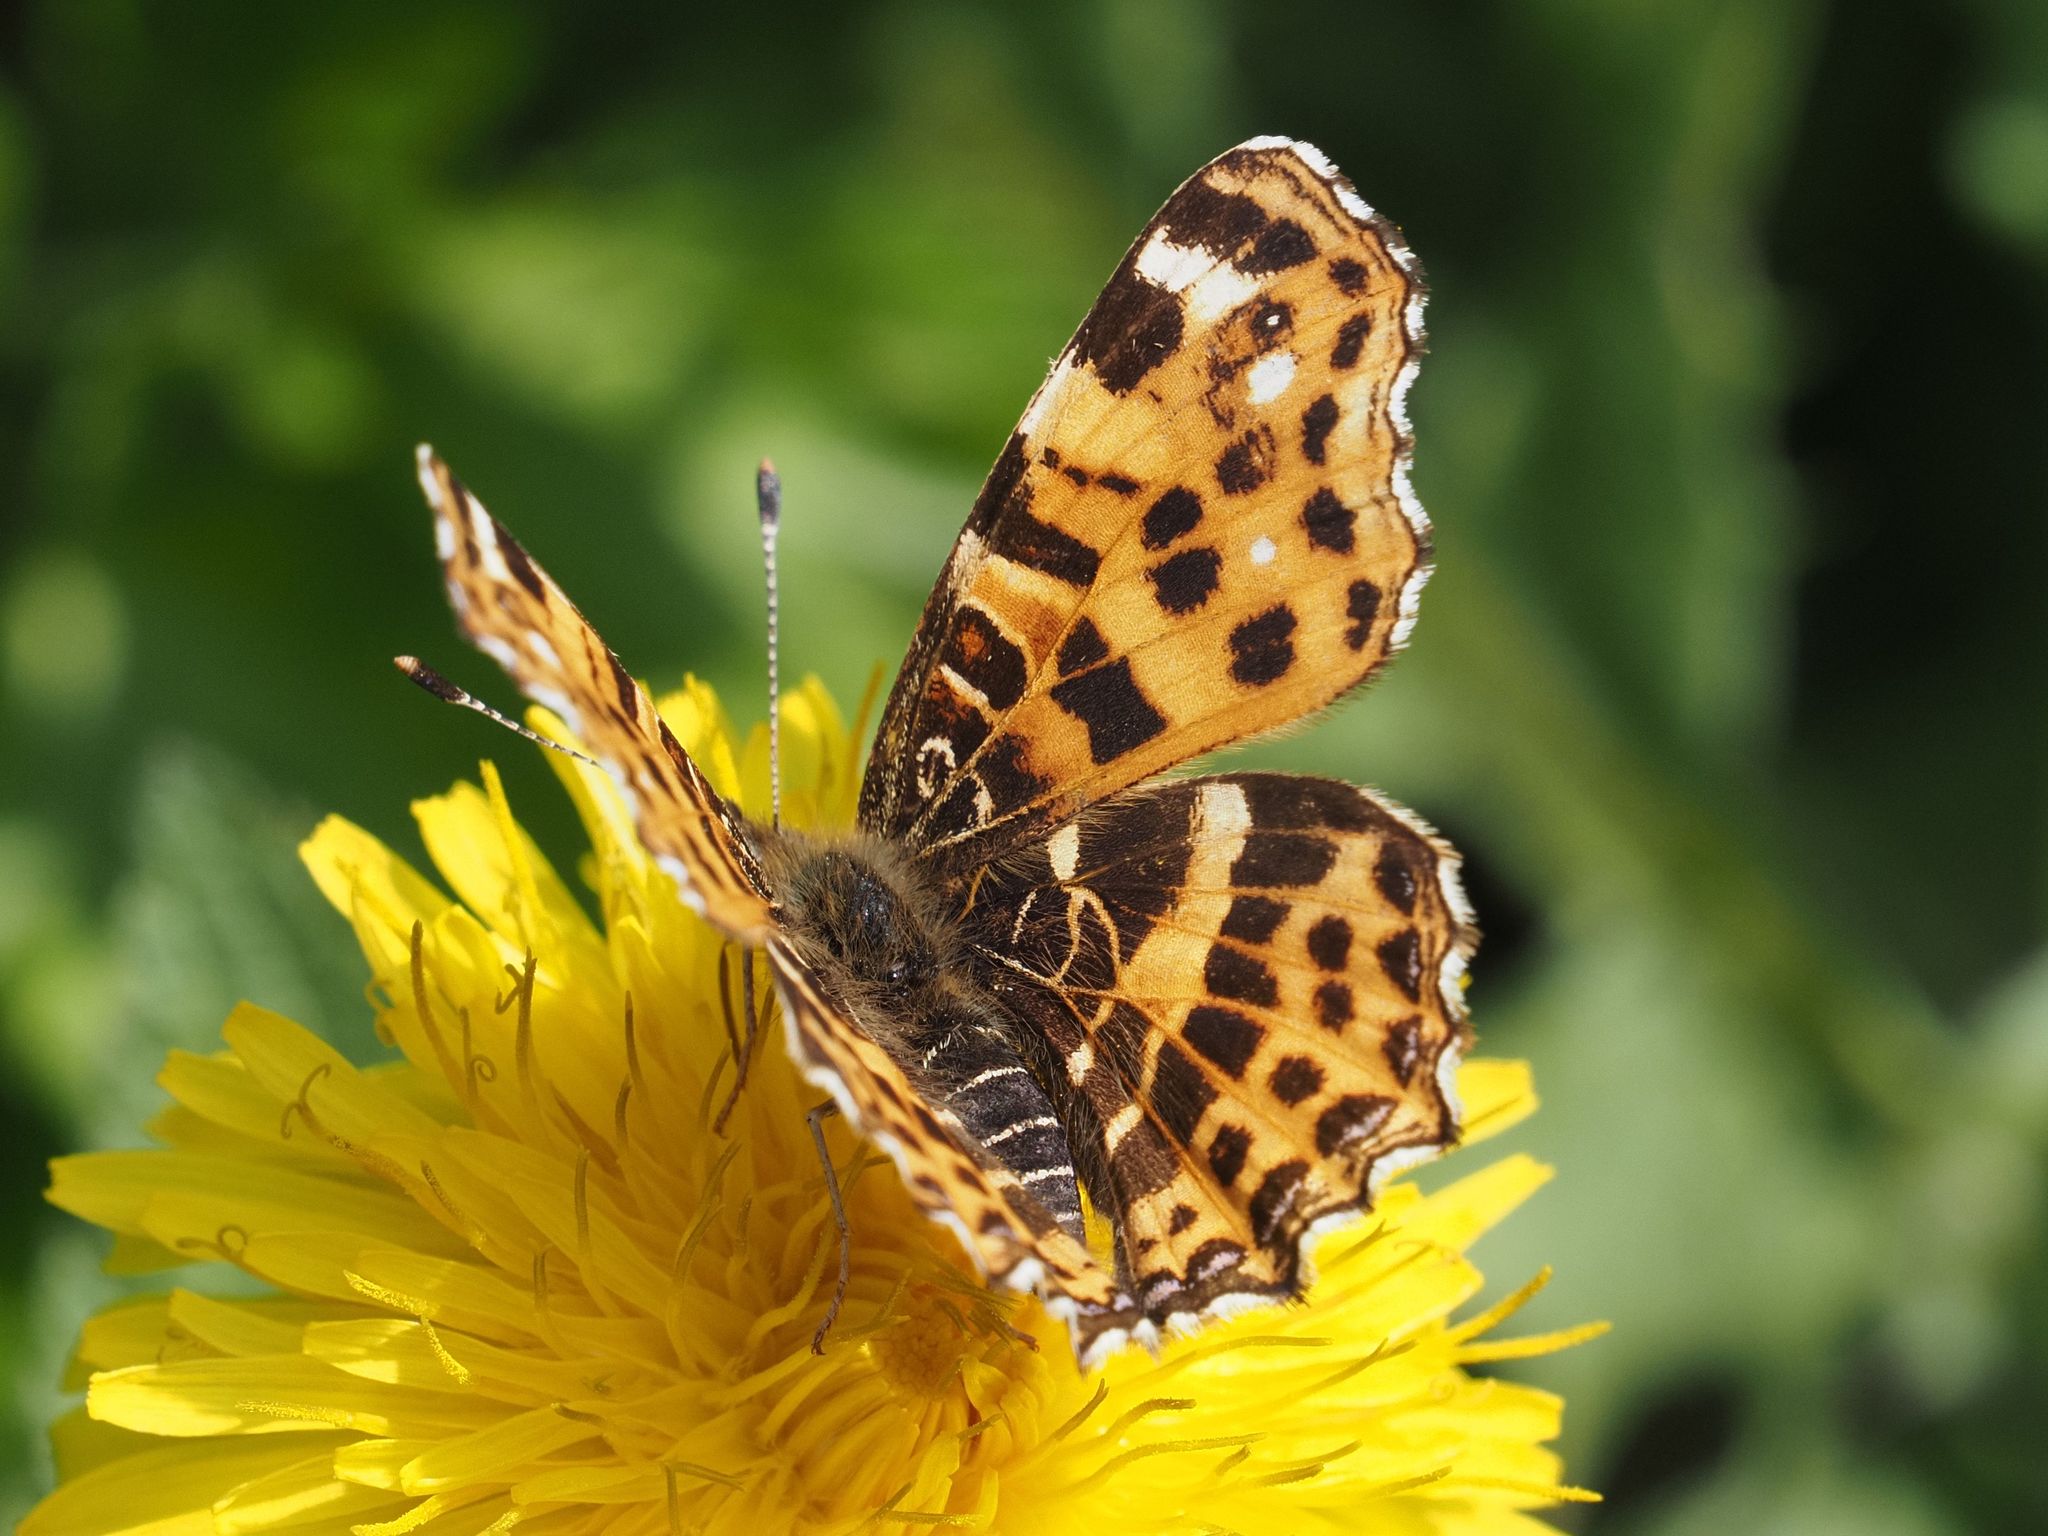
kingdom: Animalia
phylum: Arthropoda
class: Insecta
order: Lepidoptera
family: Nymphalidae
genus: Araschnia
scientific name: Araschnia levana
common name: Map butterfly
